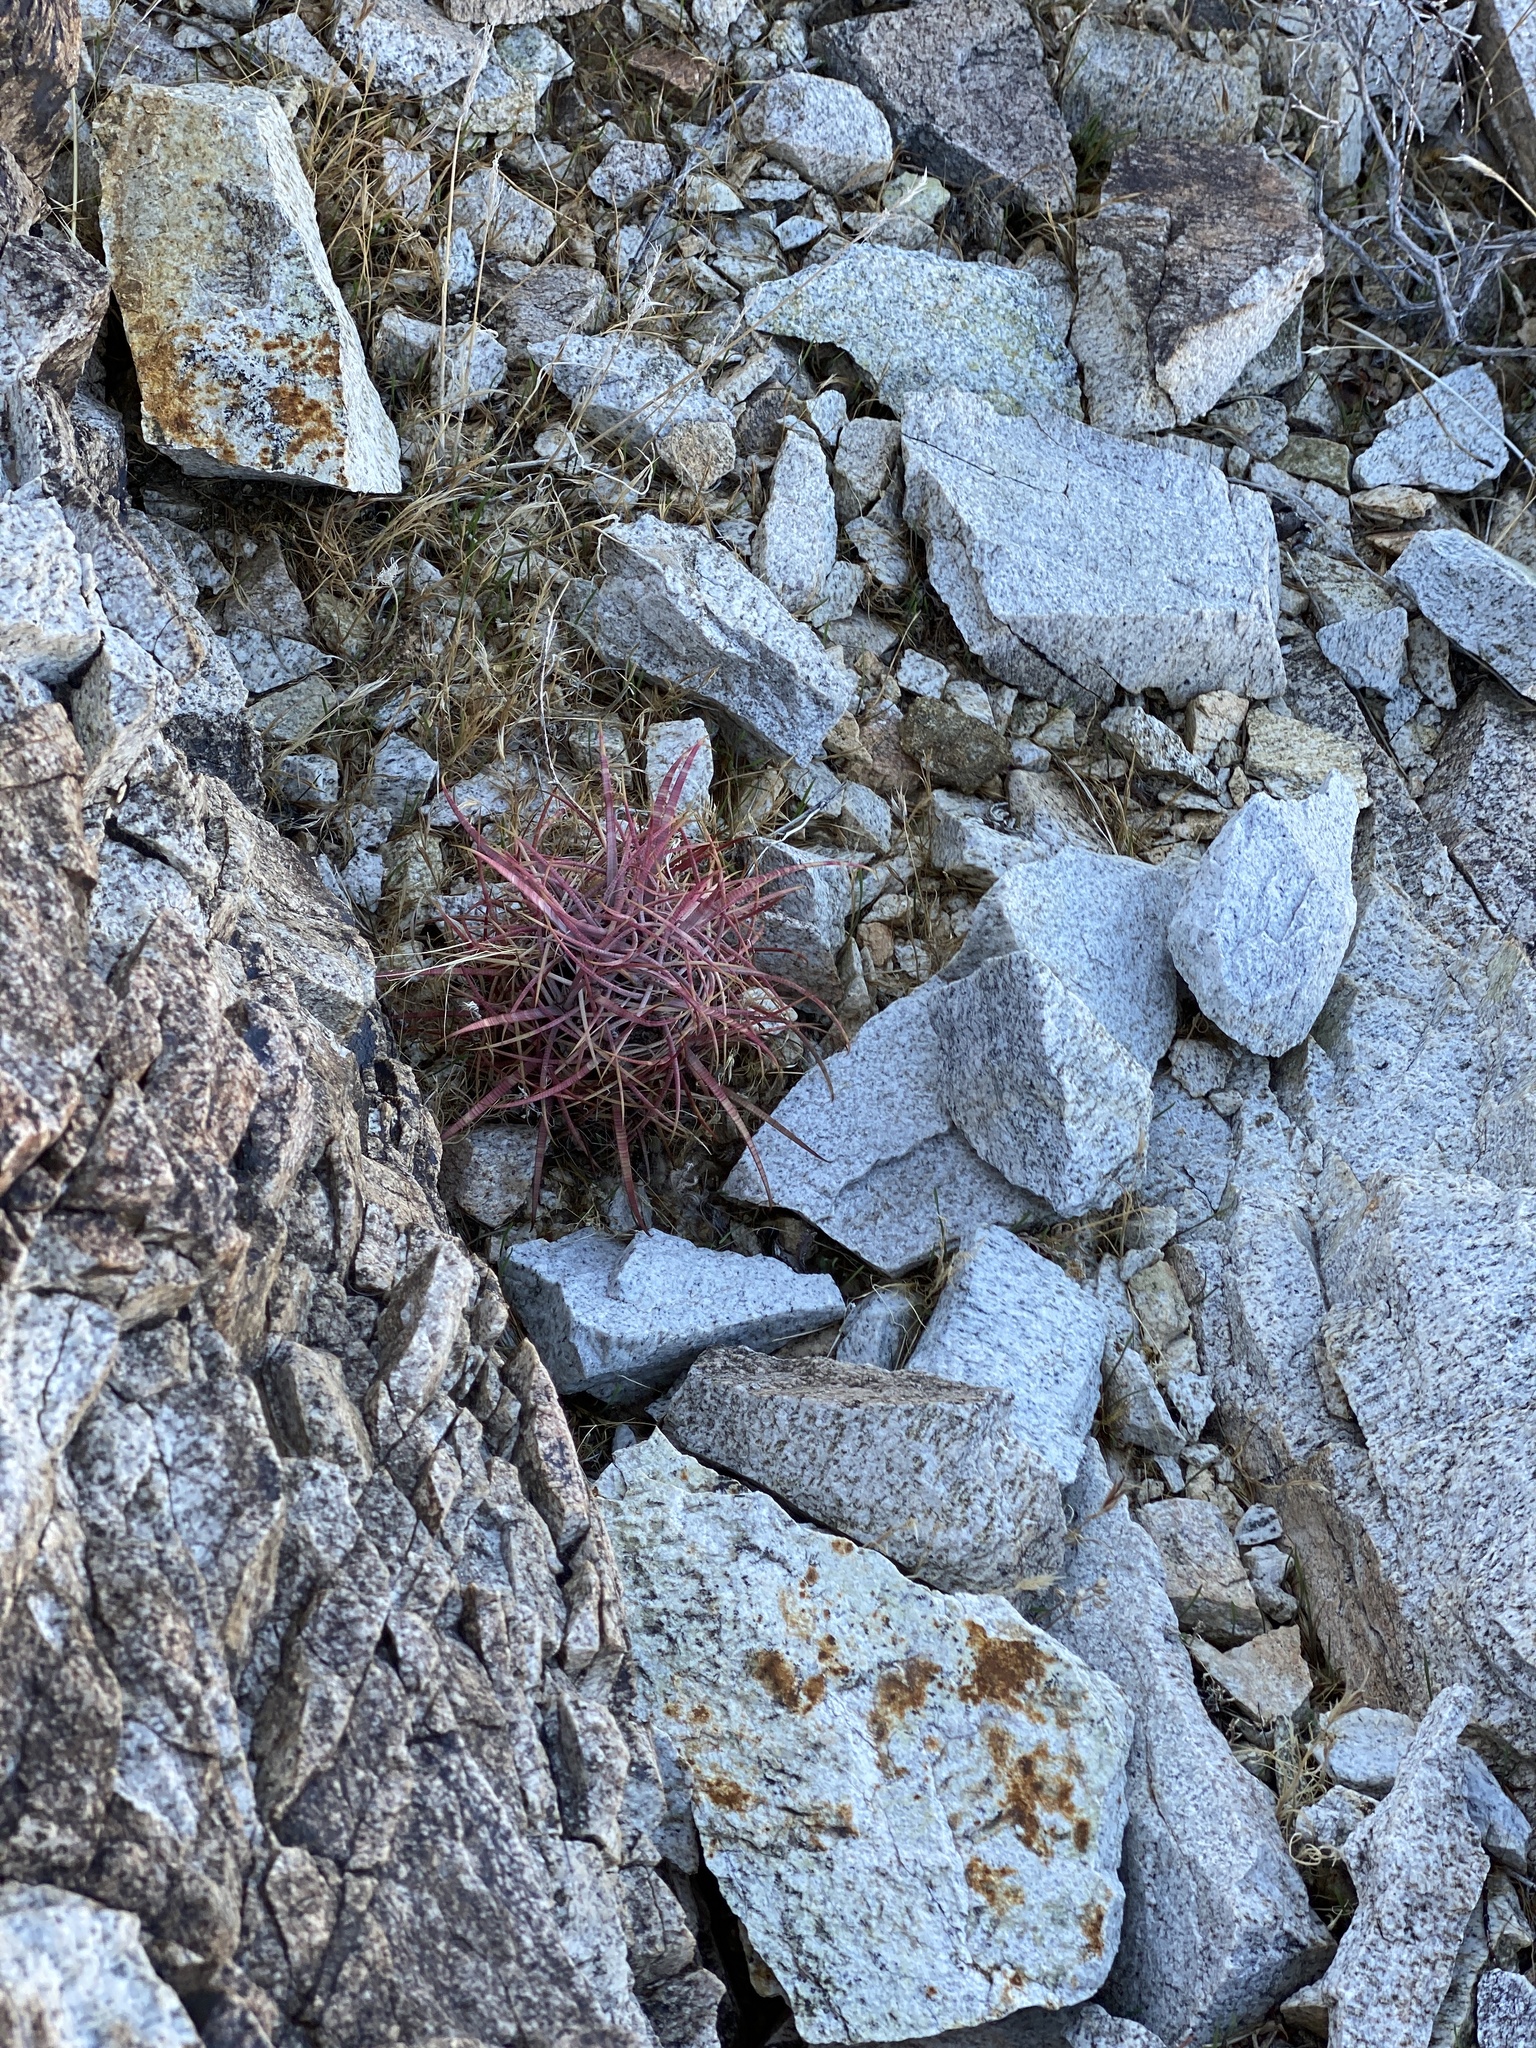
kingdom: Plantae
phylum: Tracheophyta
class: Magnoliopsida
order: Caryophyllales
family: Cactaceae
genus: Ferocactus
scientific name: Ferocactus cylindraceus
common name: California barrel cactus
